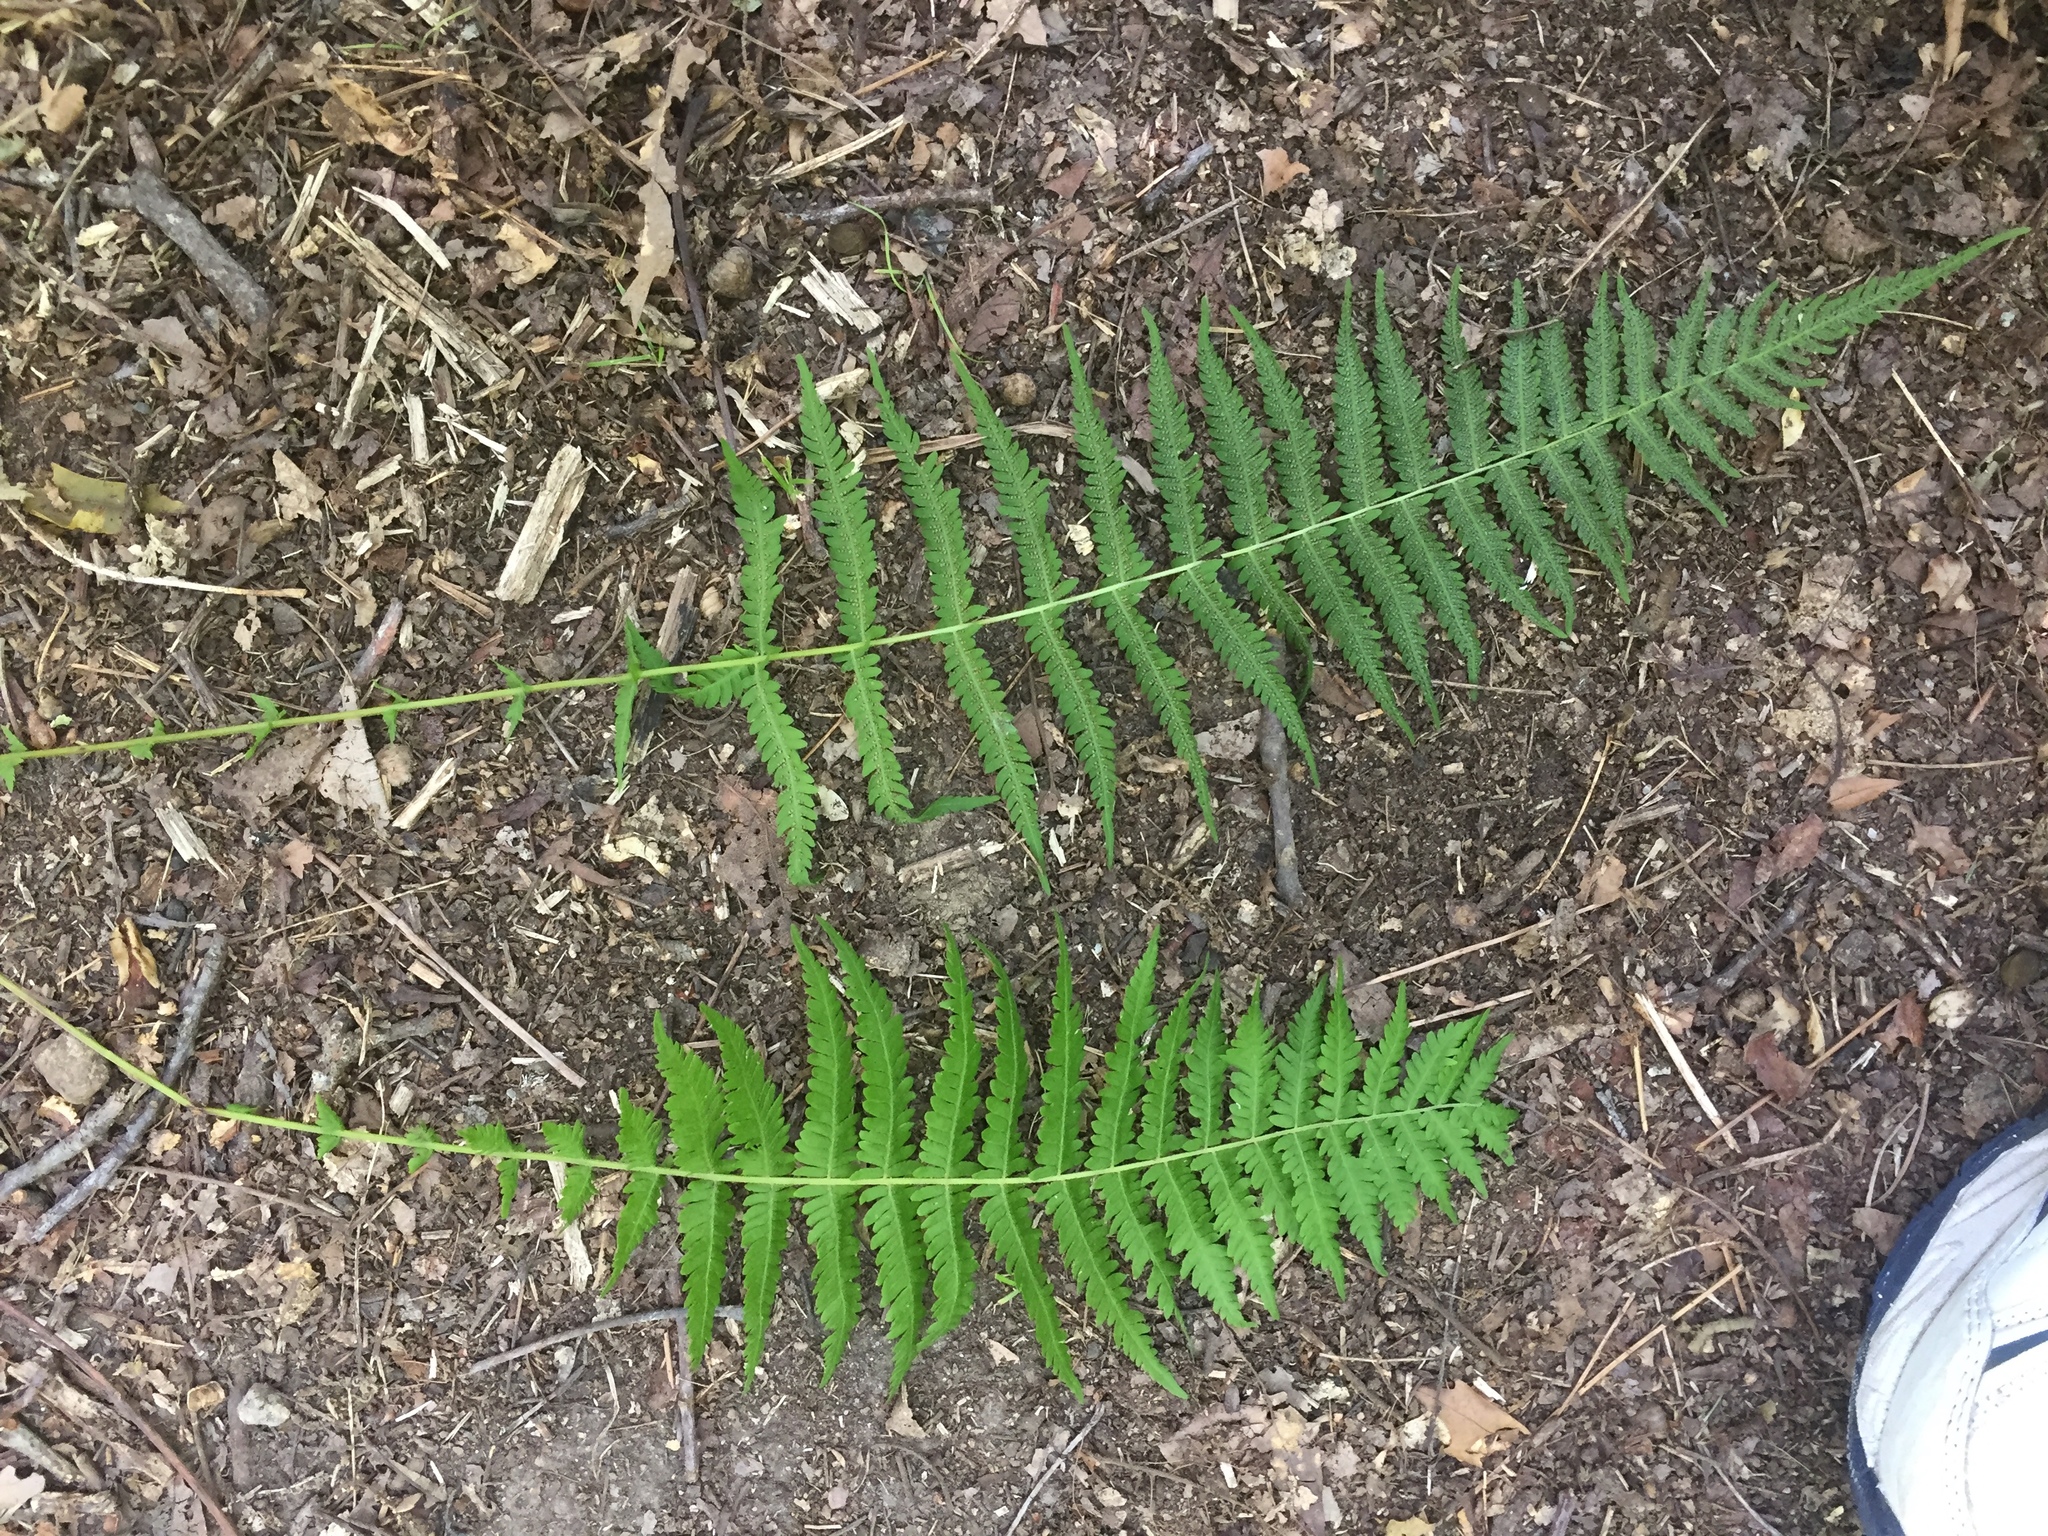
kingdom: Plantae
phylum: Tracheophyta
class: Polypodiopsida
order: Polypodiales
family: Thelypteridaceae
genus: Amauropelta
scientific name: Amauropelta noveboracensis
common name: New york fern
